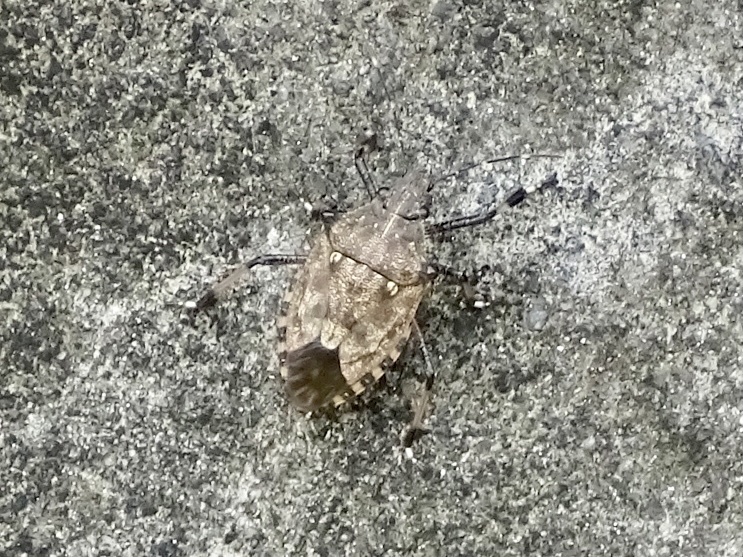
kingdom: Animalia
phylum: Arthropoda
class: Insecta
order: Hemiptera
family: Pentatomidae
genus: Dalpada
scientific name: Dalpada nodifera
